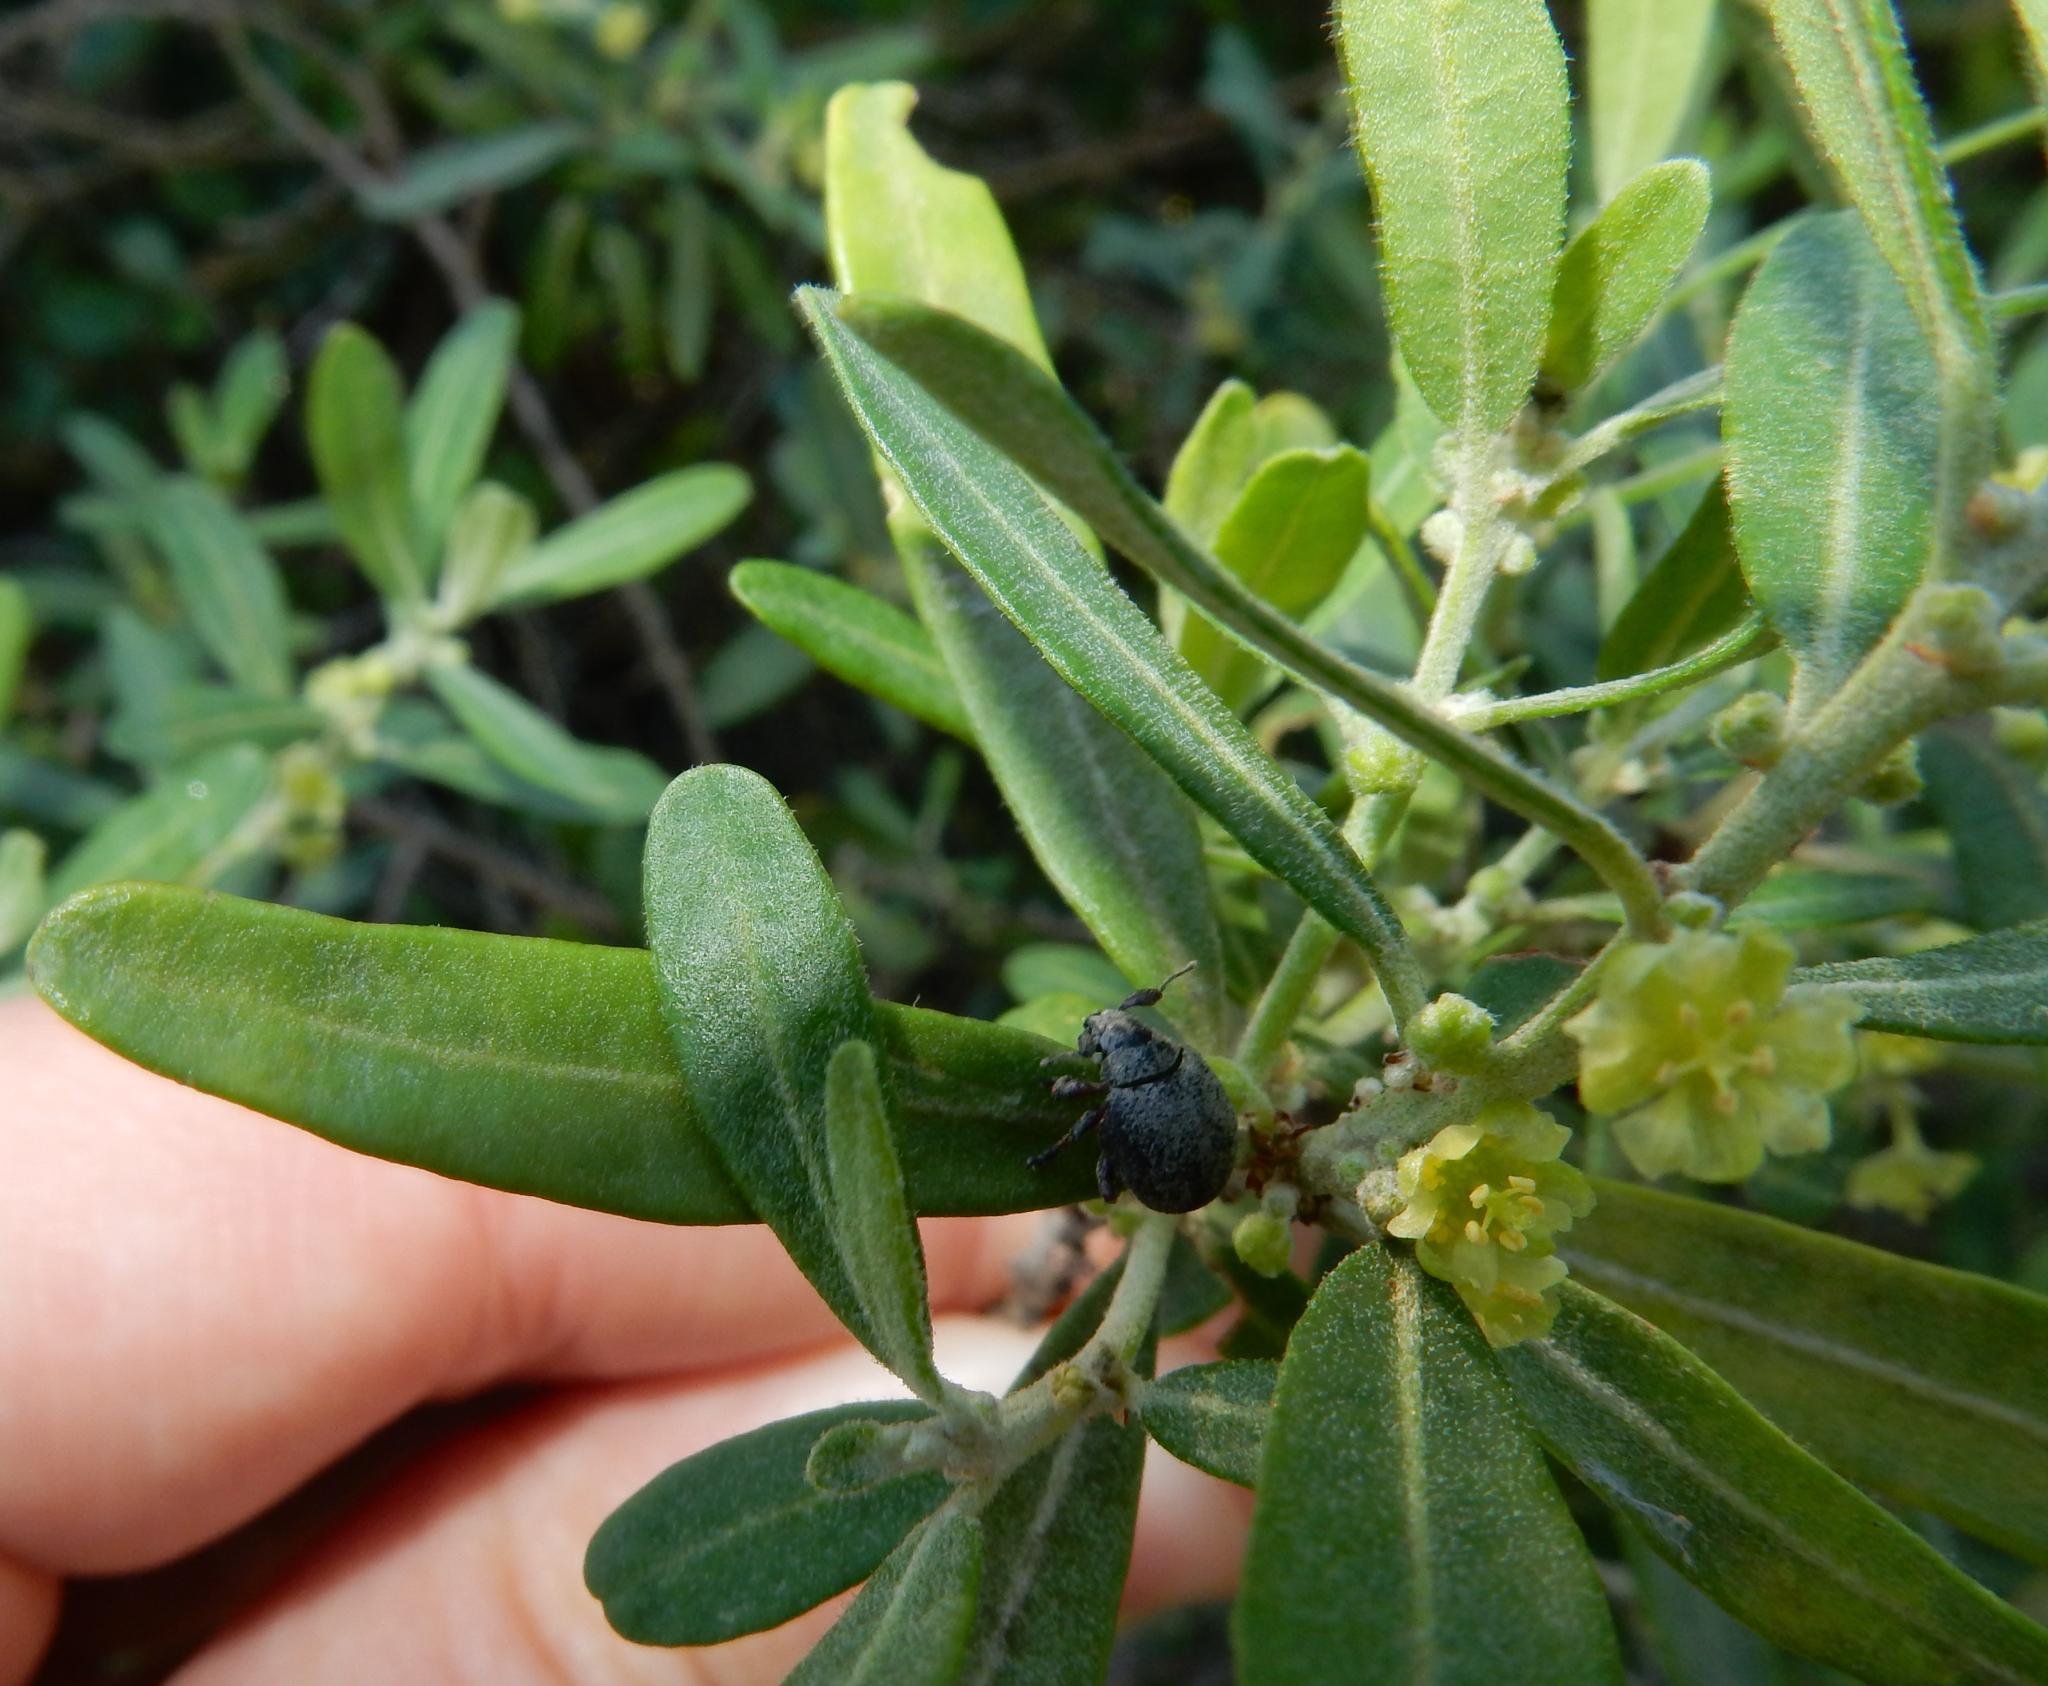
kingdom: Plantae
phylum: Tracheophyta
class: Magnoliopsida
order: Malpighiales
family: Peraceae
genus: Clutia
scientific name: Clutia daphnoides
